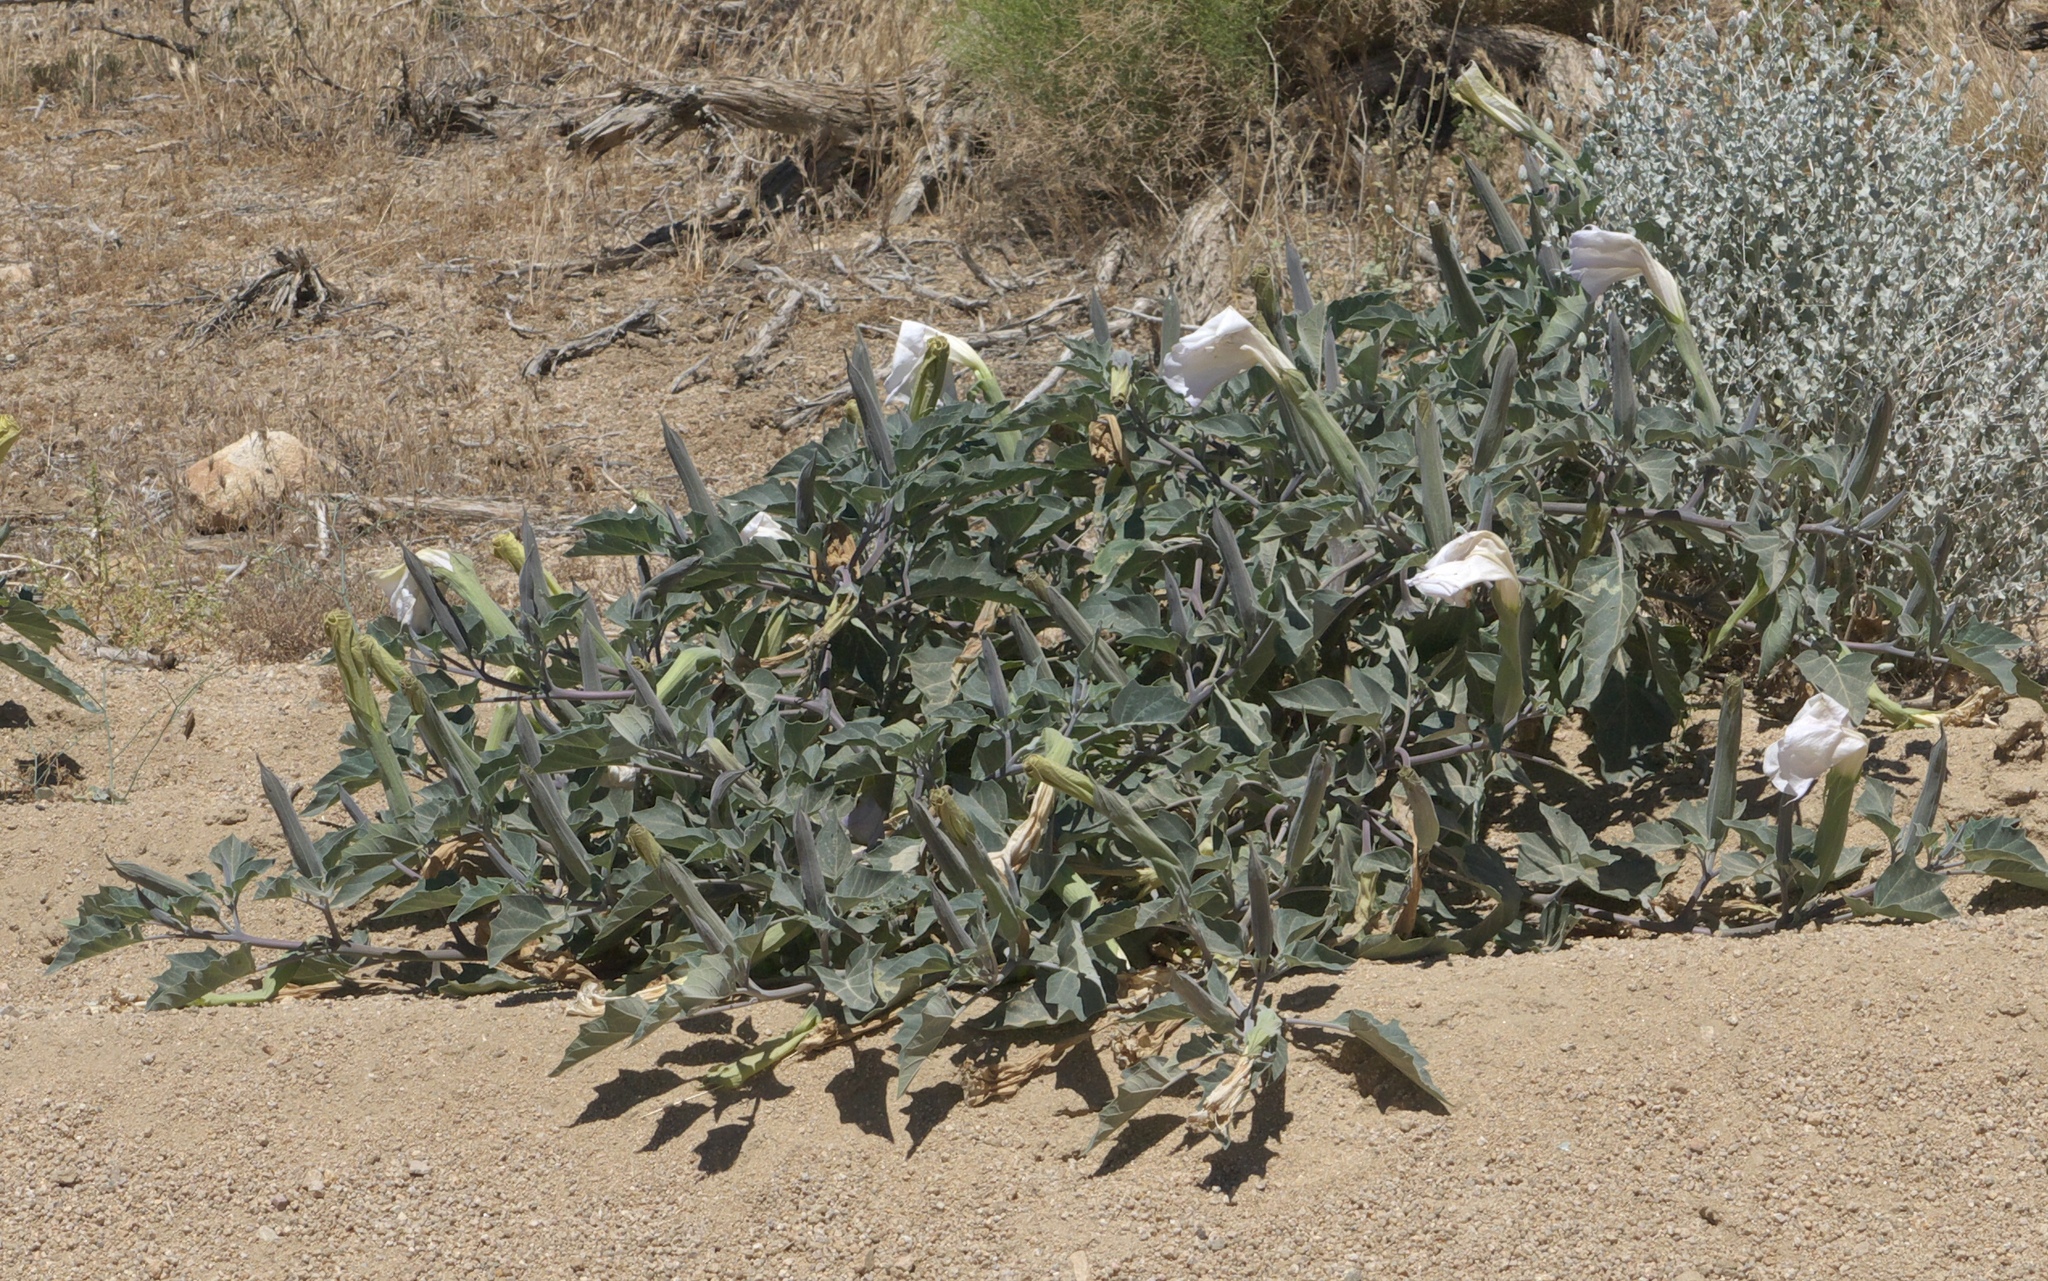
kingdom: Plantae
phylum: Tracheophyta
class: Magnoliopsida
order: Solanales
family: Solanaceae
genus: Datura
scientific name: Datura wrightii
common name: Sacred thorn-apple
